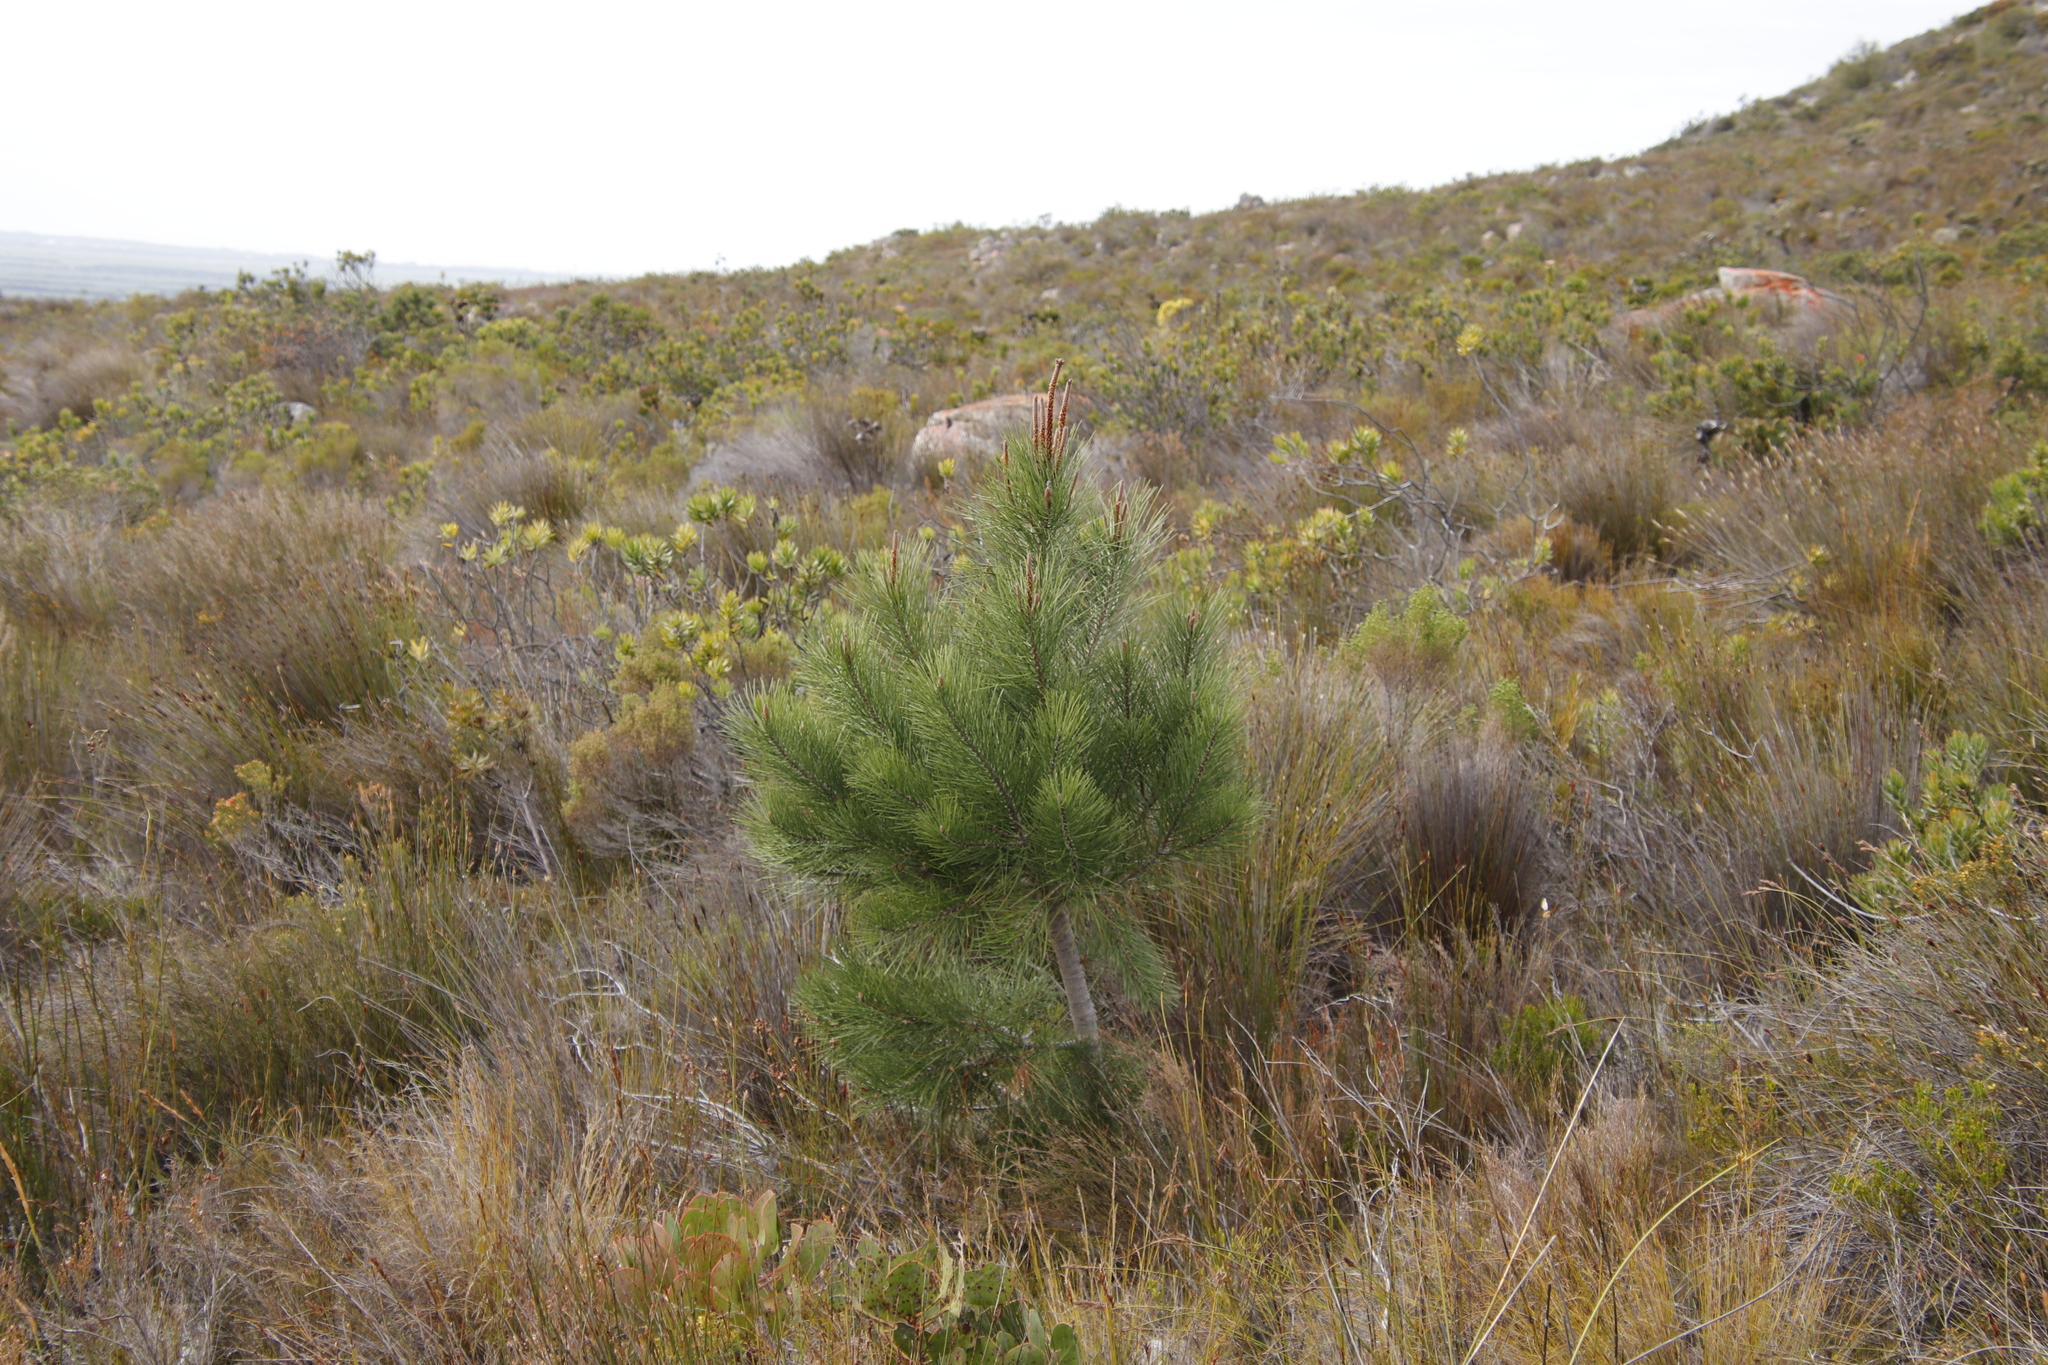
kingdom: Plantae
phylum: Tracheophyta
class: Pinopsida
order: Pinales
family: Pinaceae
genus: Pinus
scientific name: Pinus pinaster
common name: Maritime pine
